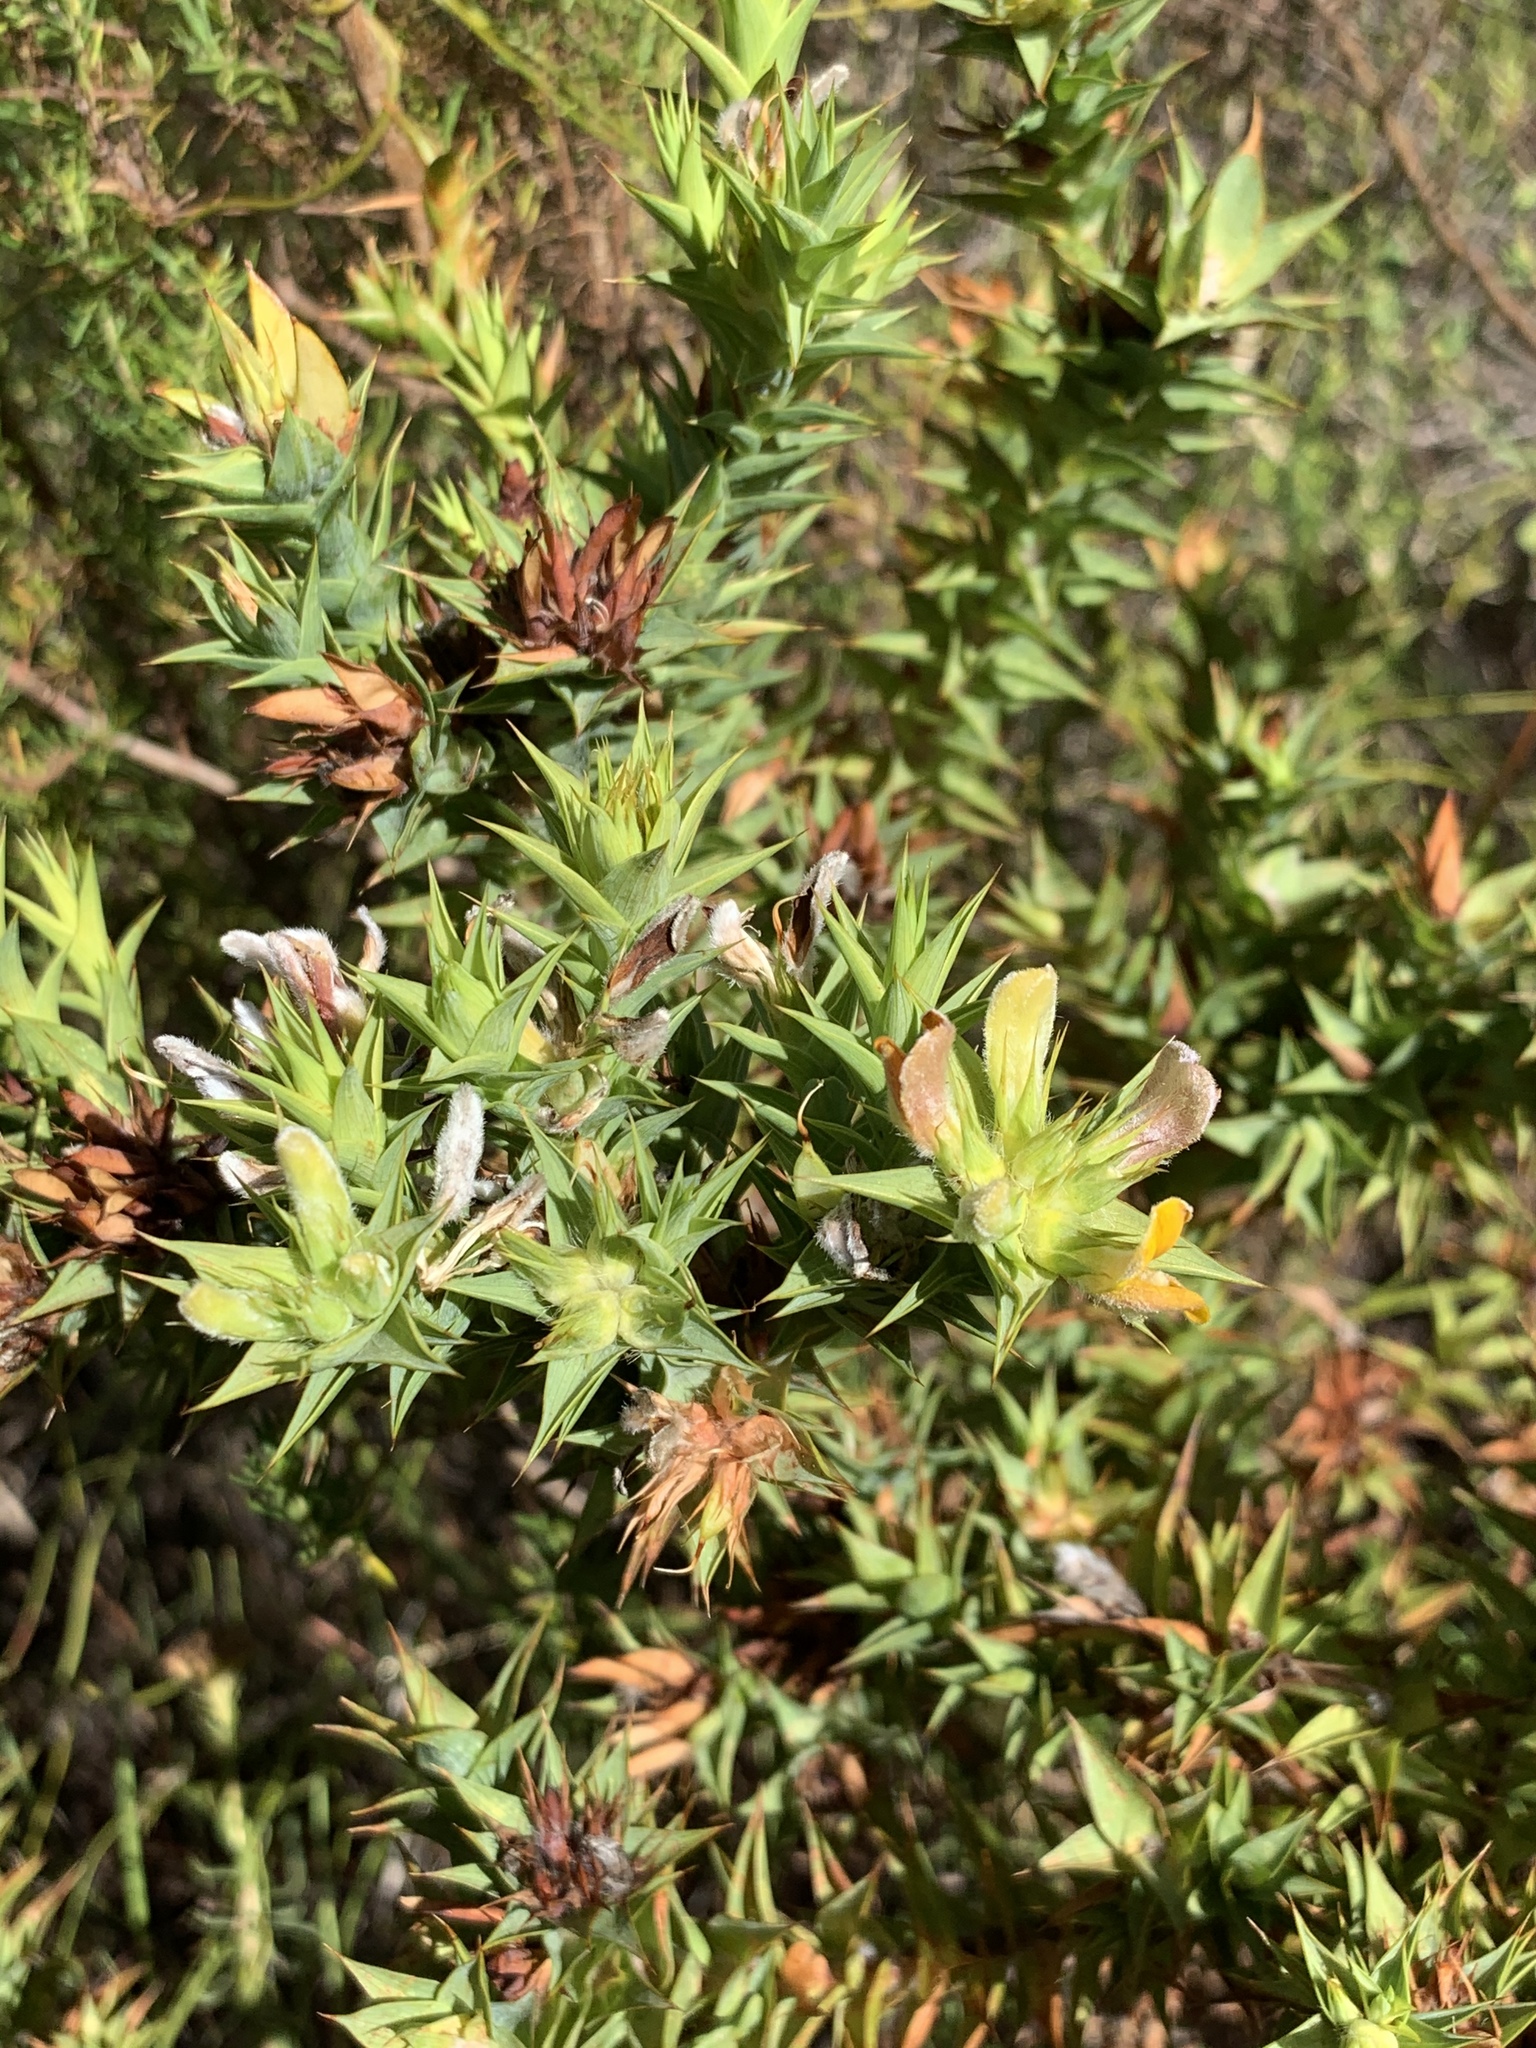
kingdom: Plantae
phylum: Tracheophyta
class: Magnoliopsida
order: Fabales
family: Fabaceae
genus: Aspalathus
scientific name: Aspalathus cordata
